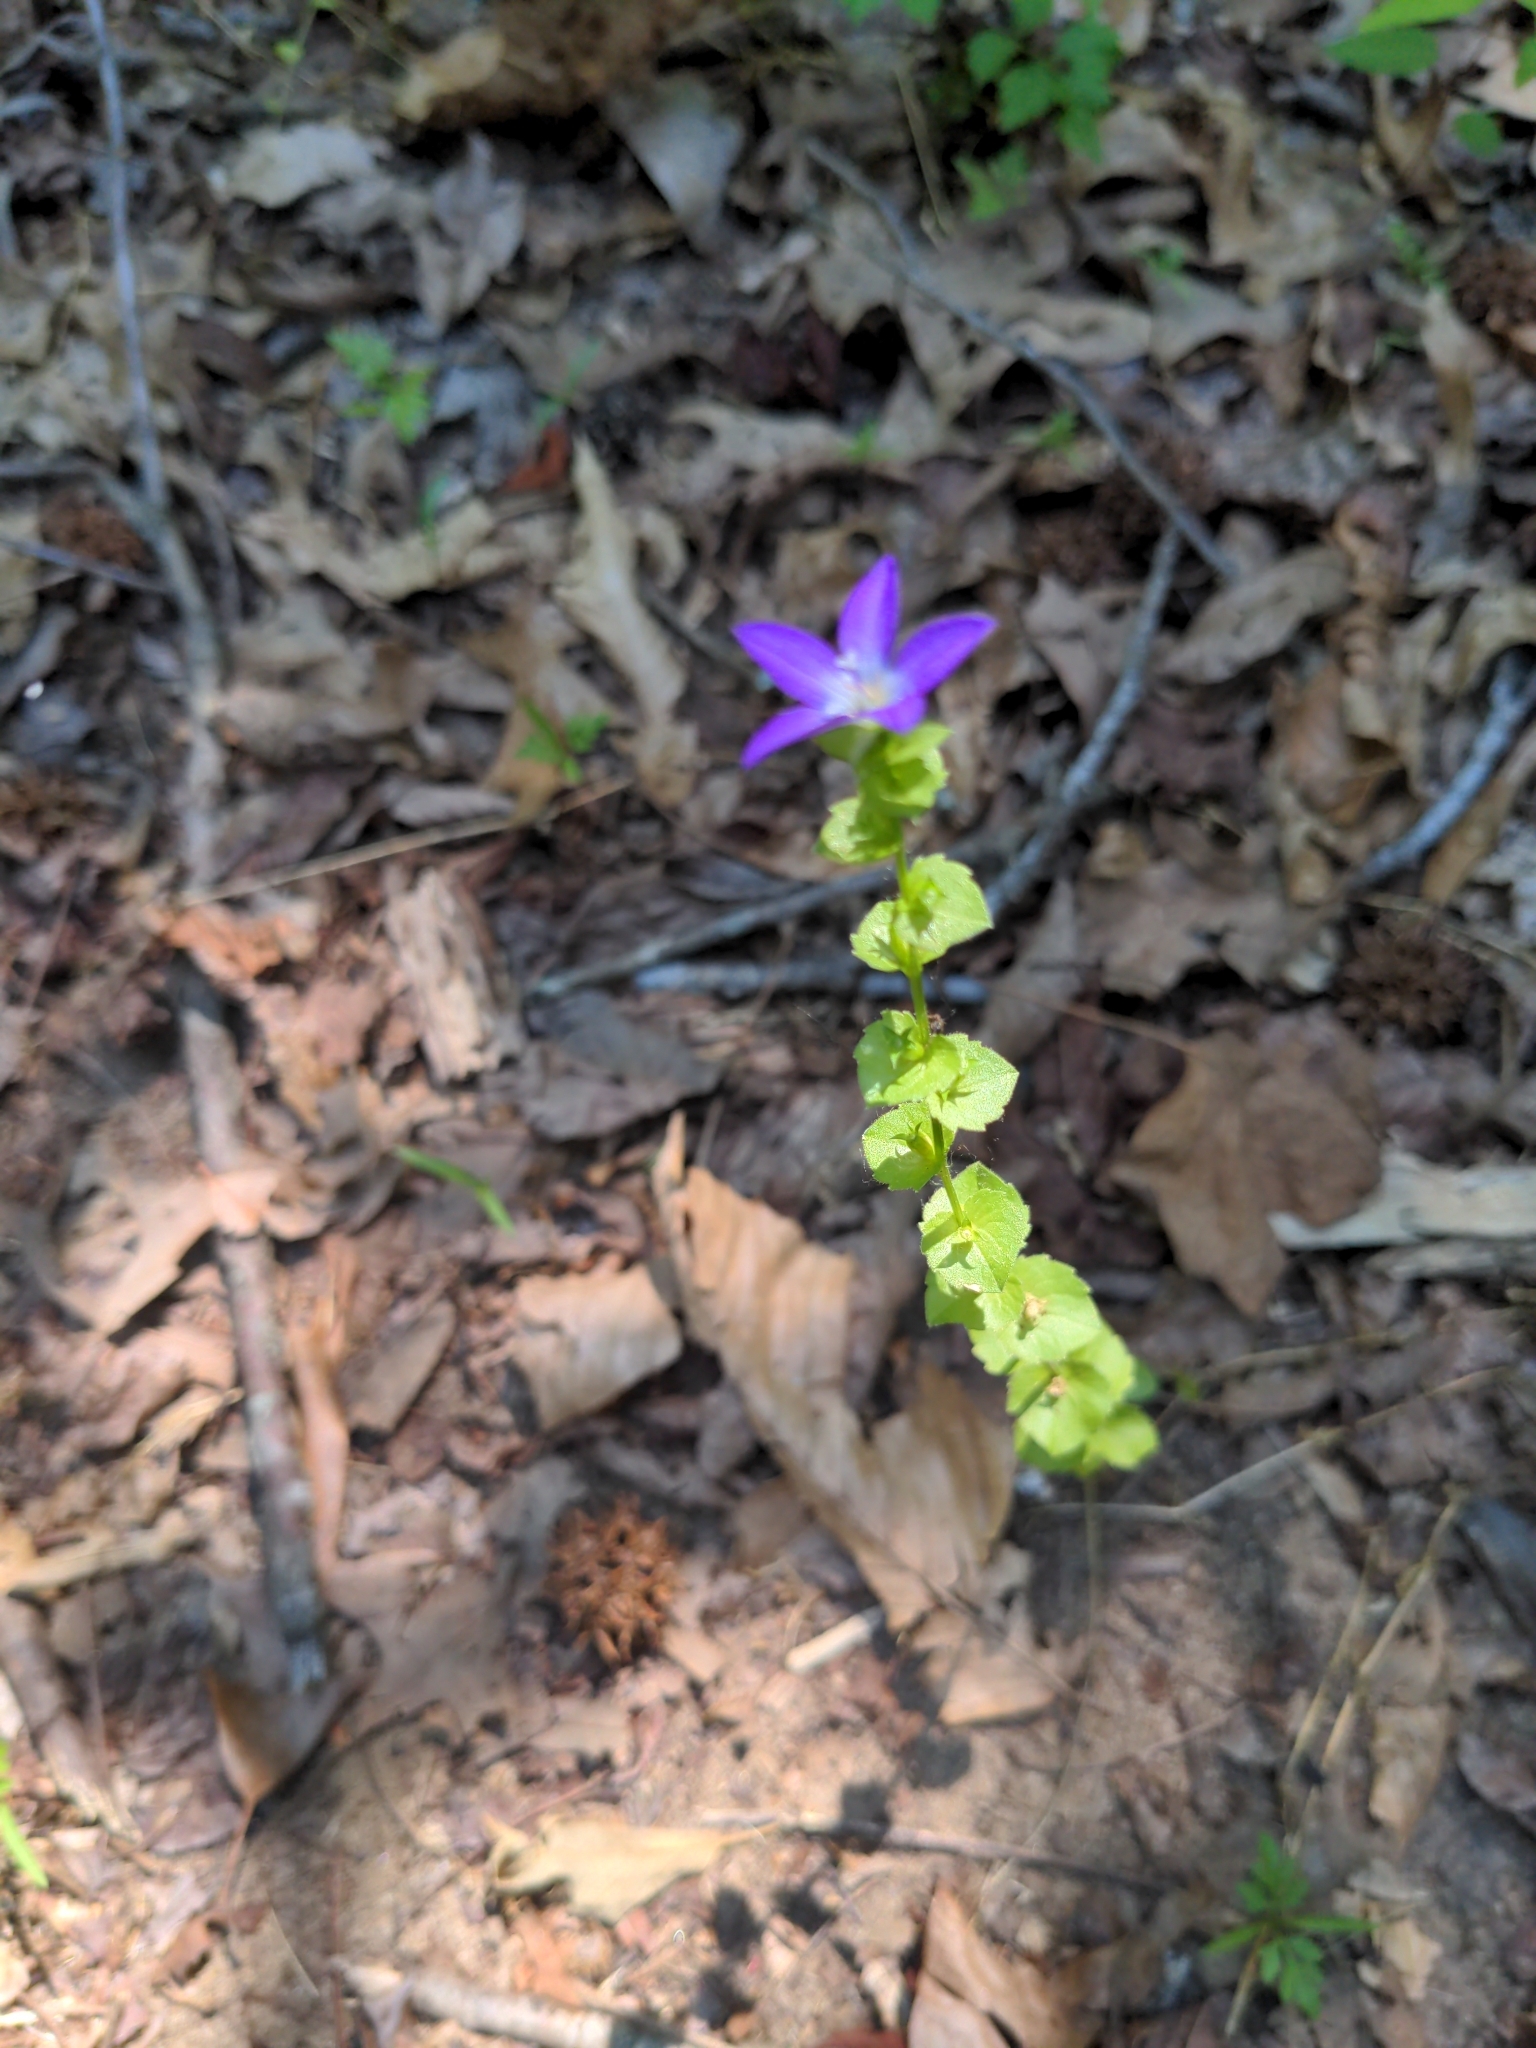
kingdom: Plantae
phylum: Tracheophyta
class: Magnoliopsida
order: Asterales
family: Campanulaceae
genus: Triodanis
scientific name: Triodanis perfoliata
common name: Clasping venus' looking-glass
